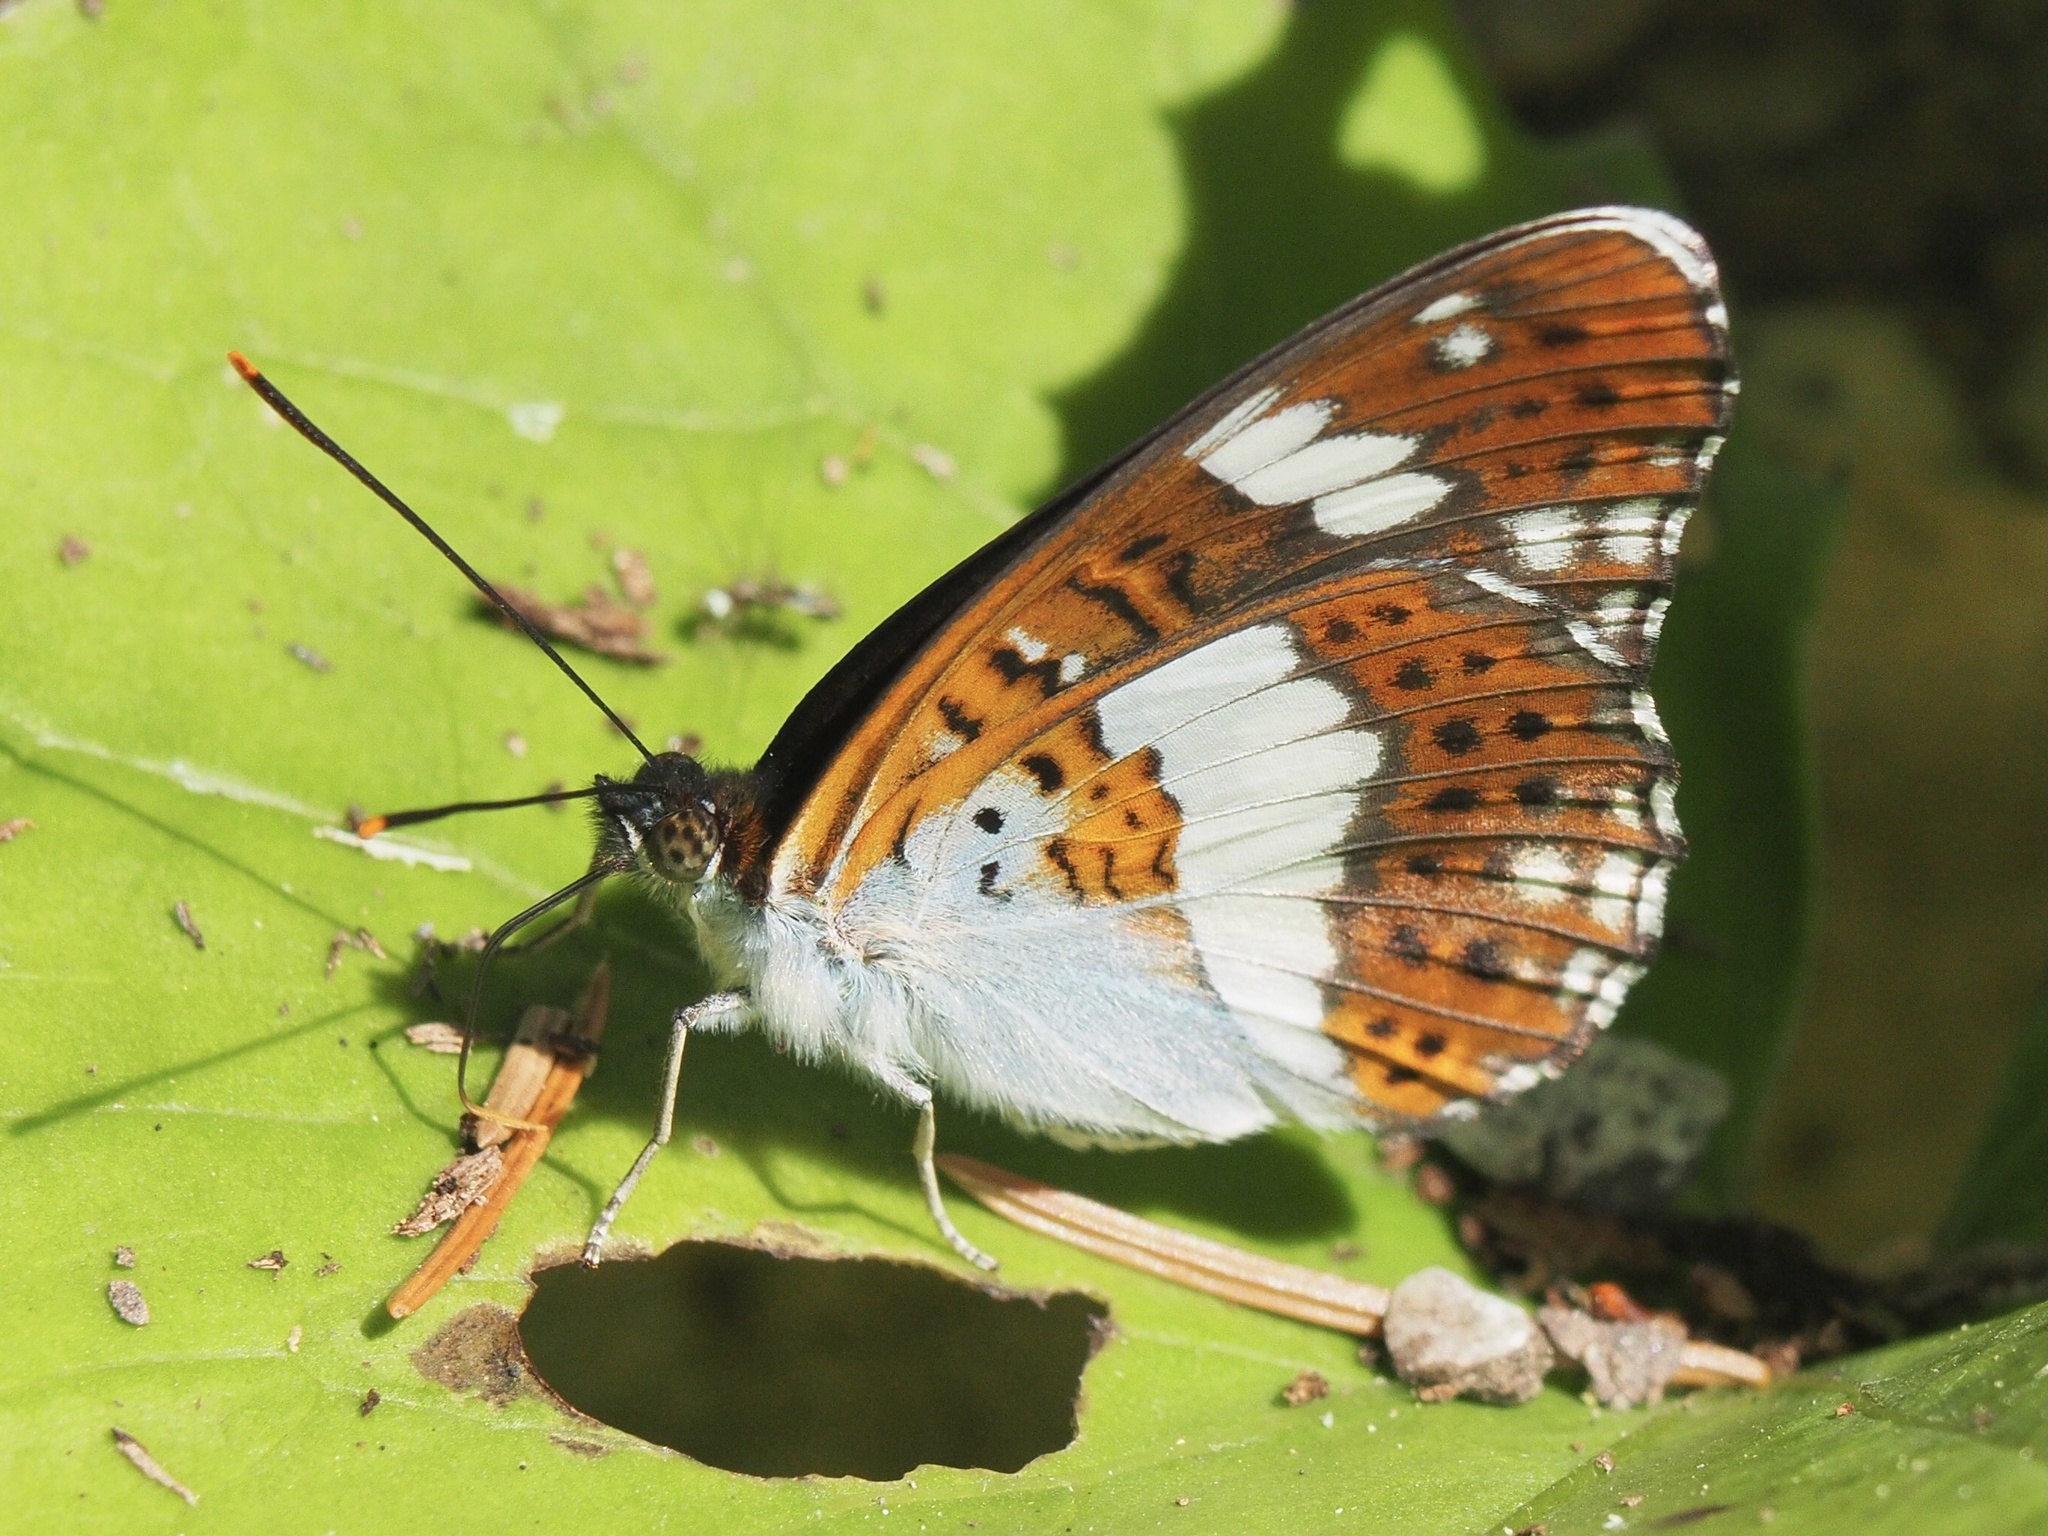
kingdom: Animalia
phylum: Arthropoda
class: Insecta
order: Lepidoptera
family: Nymphalidae
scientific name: Nymphalidae
